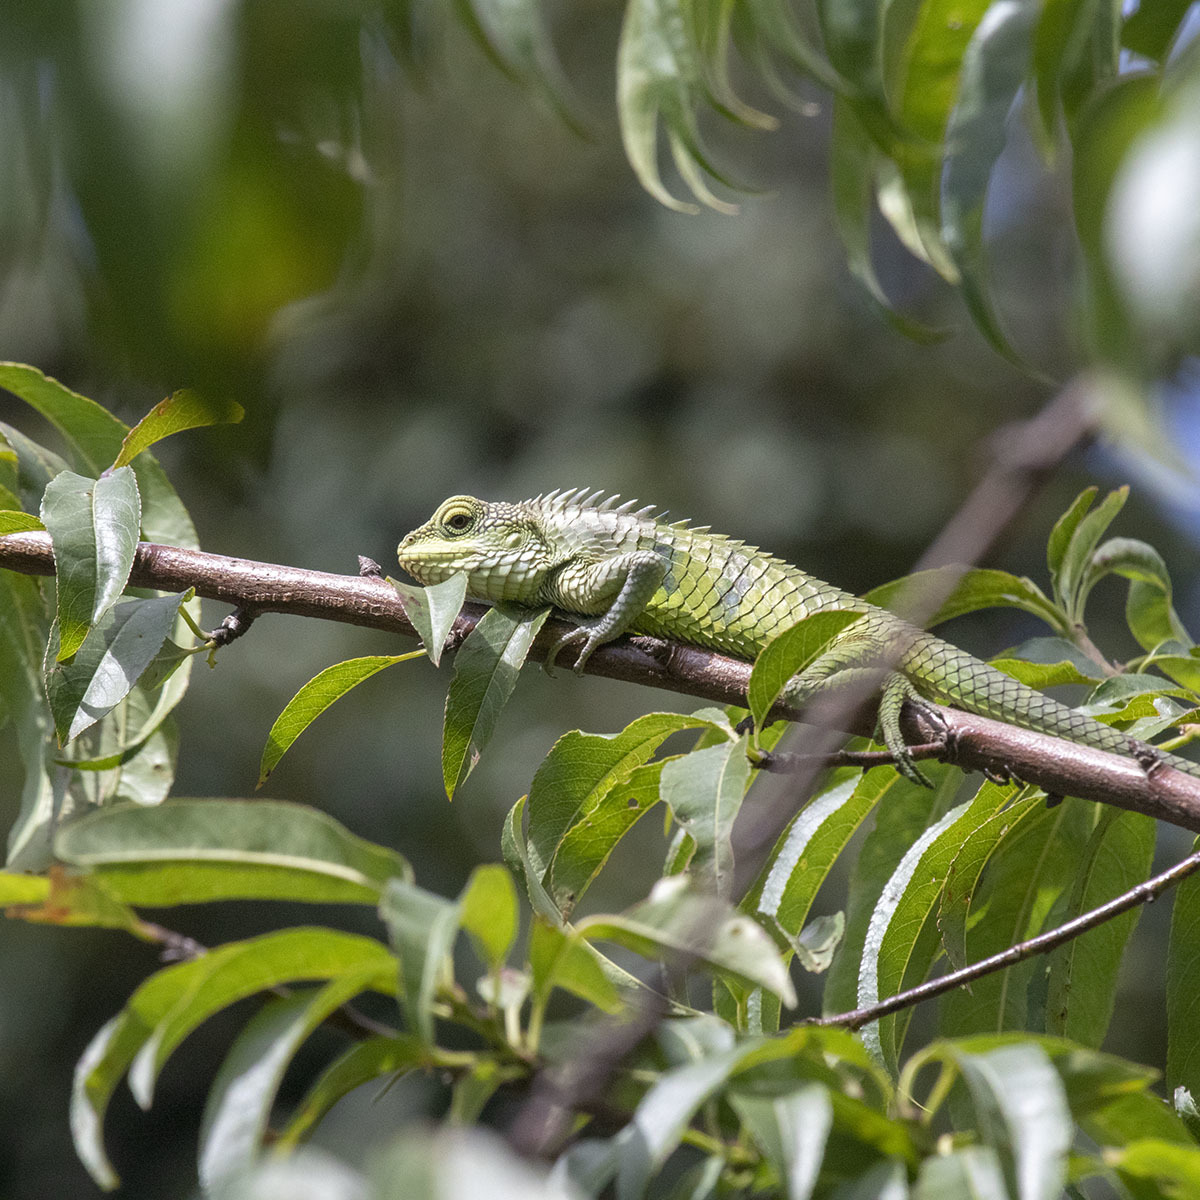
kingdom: Animalia
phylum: Chordata
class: Squamata
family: Agamidae
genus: Calotes
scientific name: Calotes grandisquamis
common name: Big scaled variable lizard
